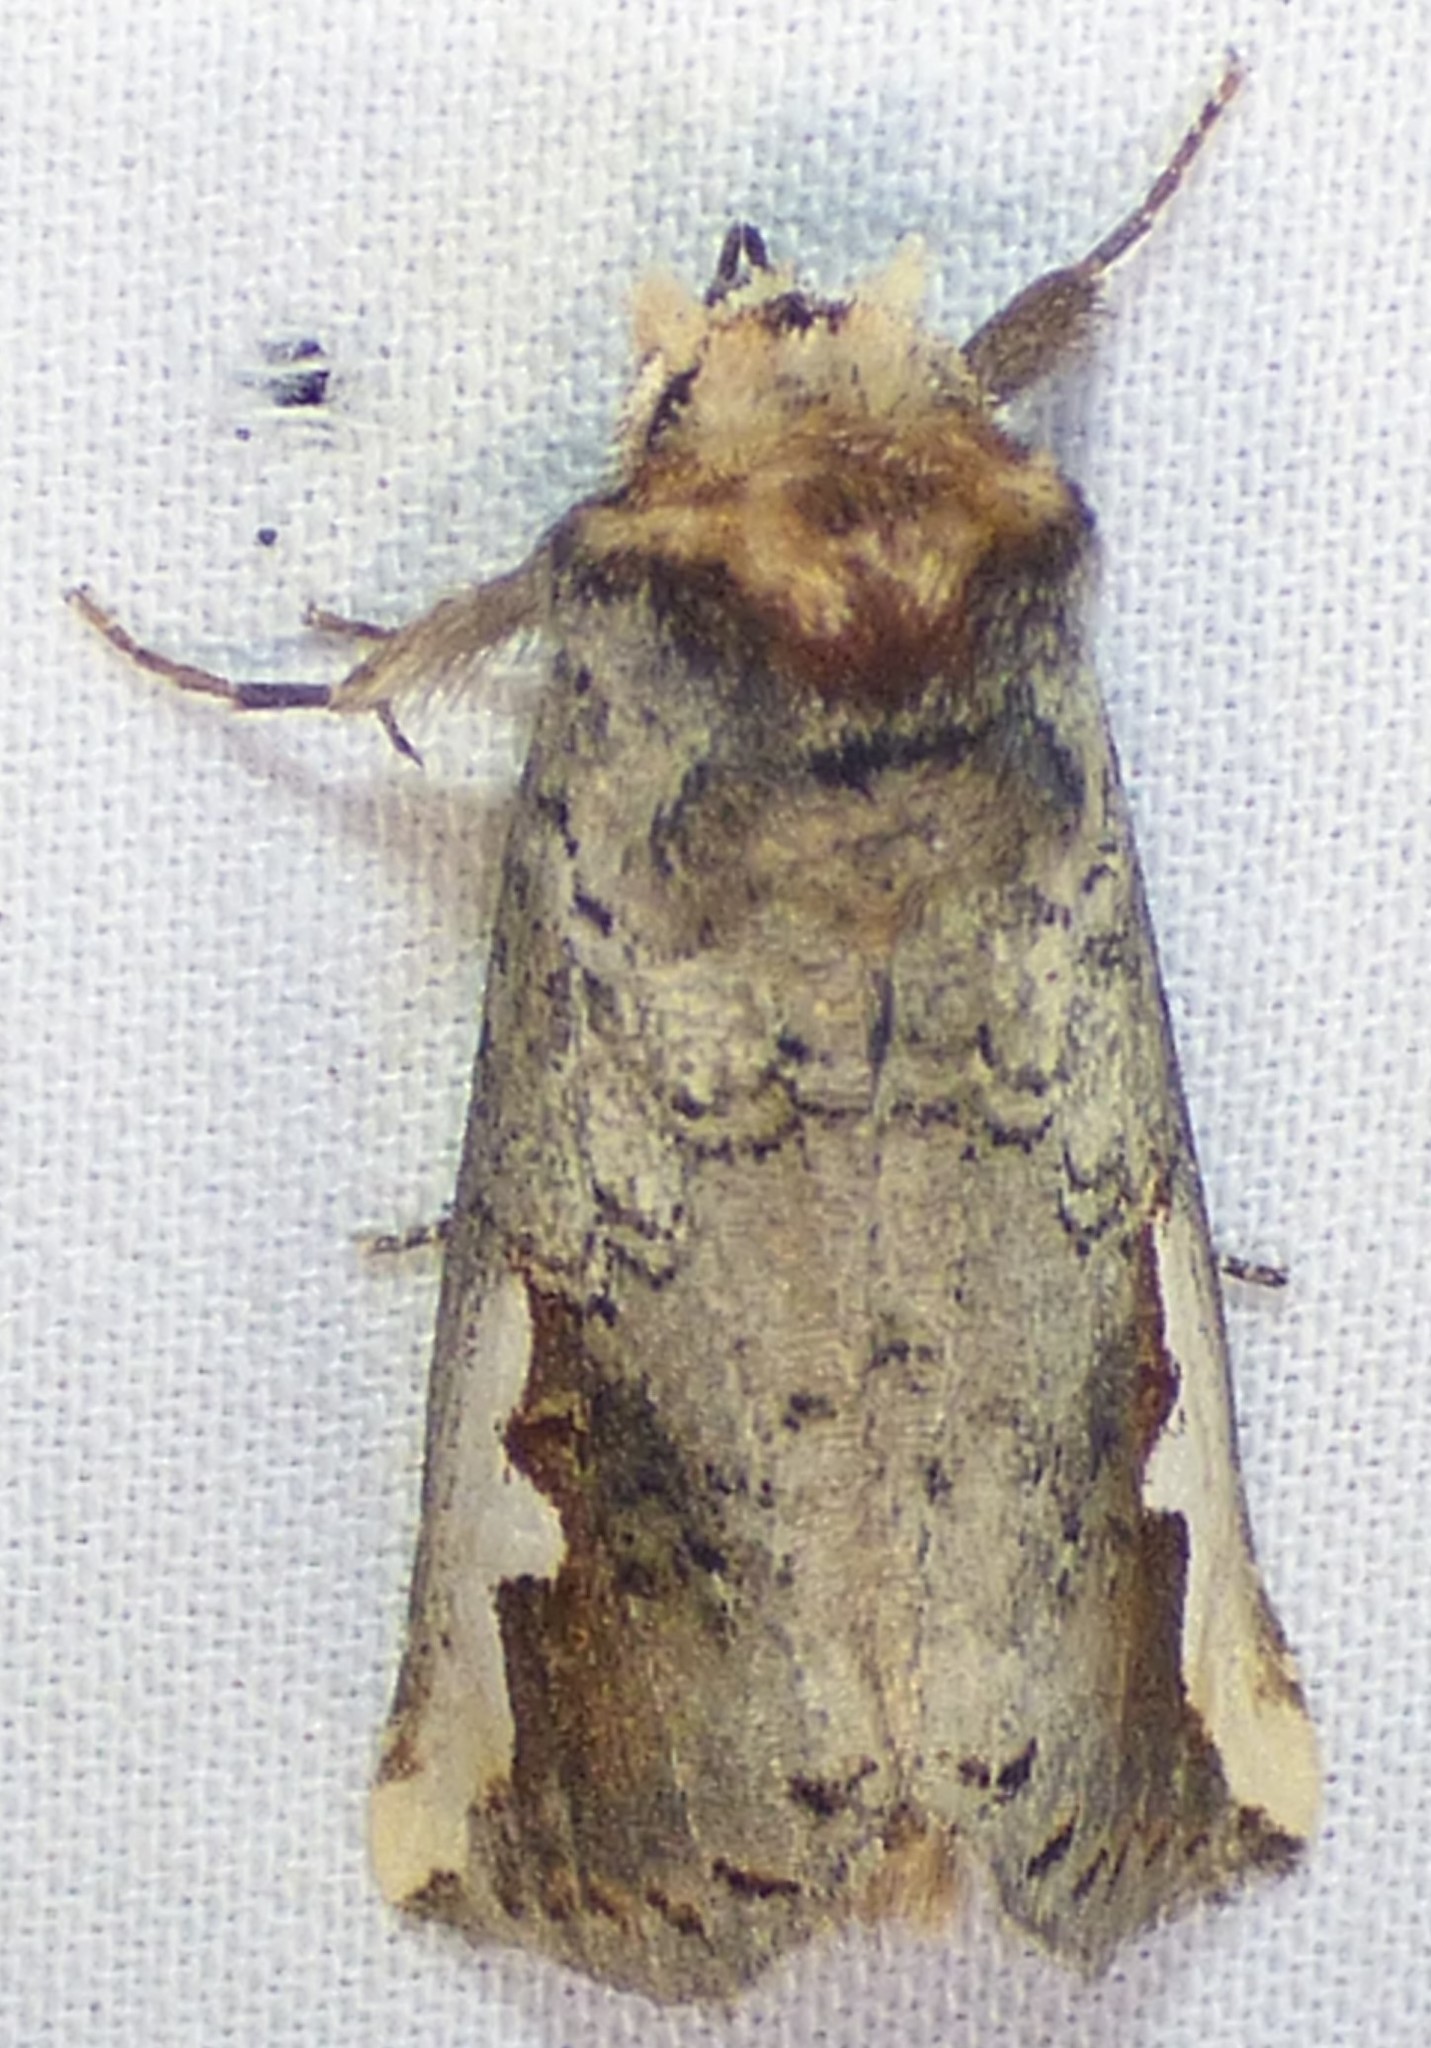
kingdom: Animalia
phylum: Arthropoda
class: Insecta
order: Lepidoptera
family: Notodontidae
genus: Symmerista
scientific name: Symmerista
